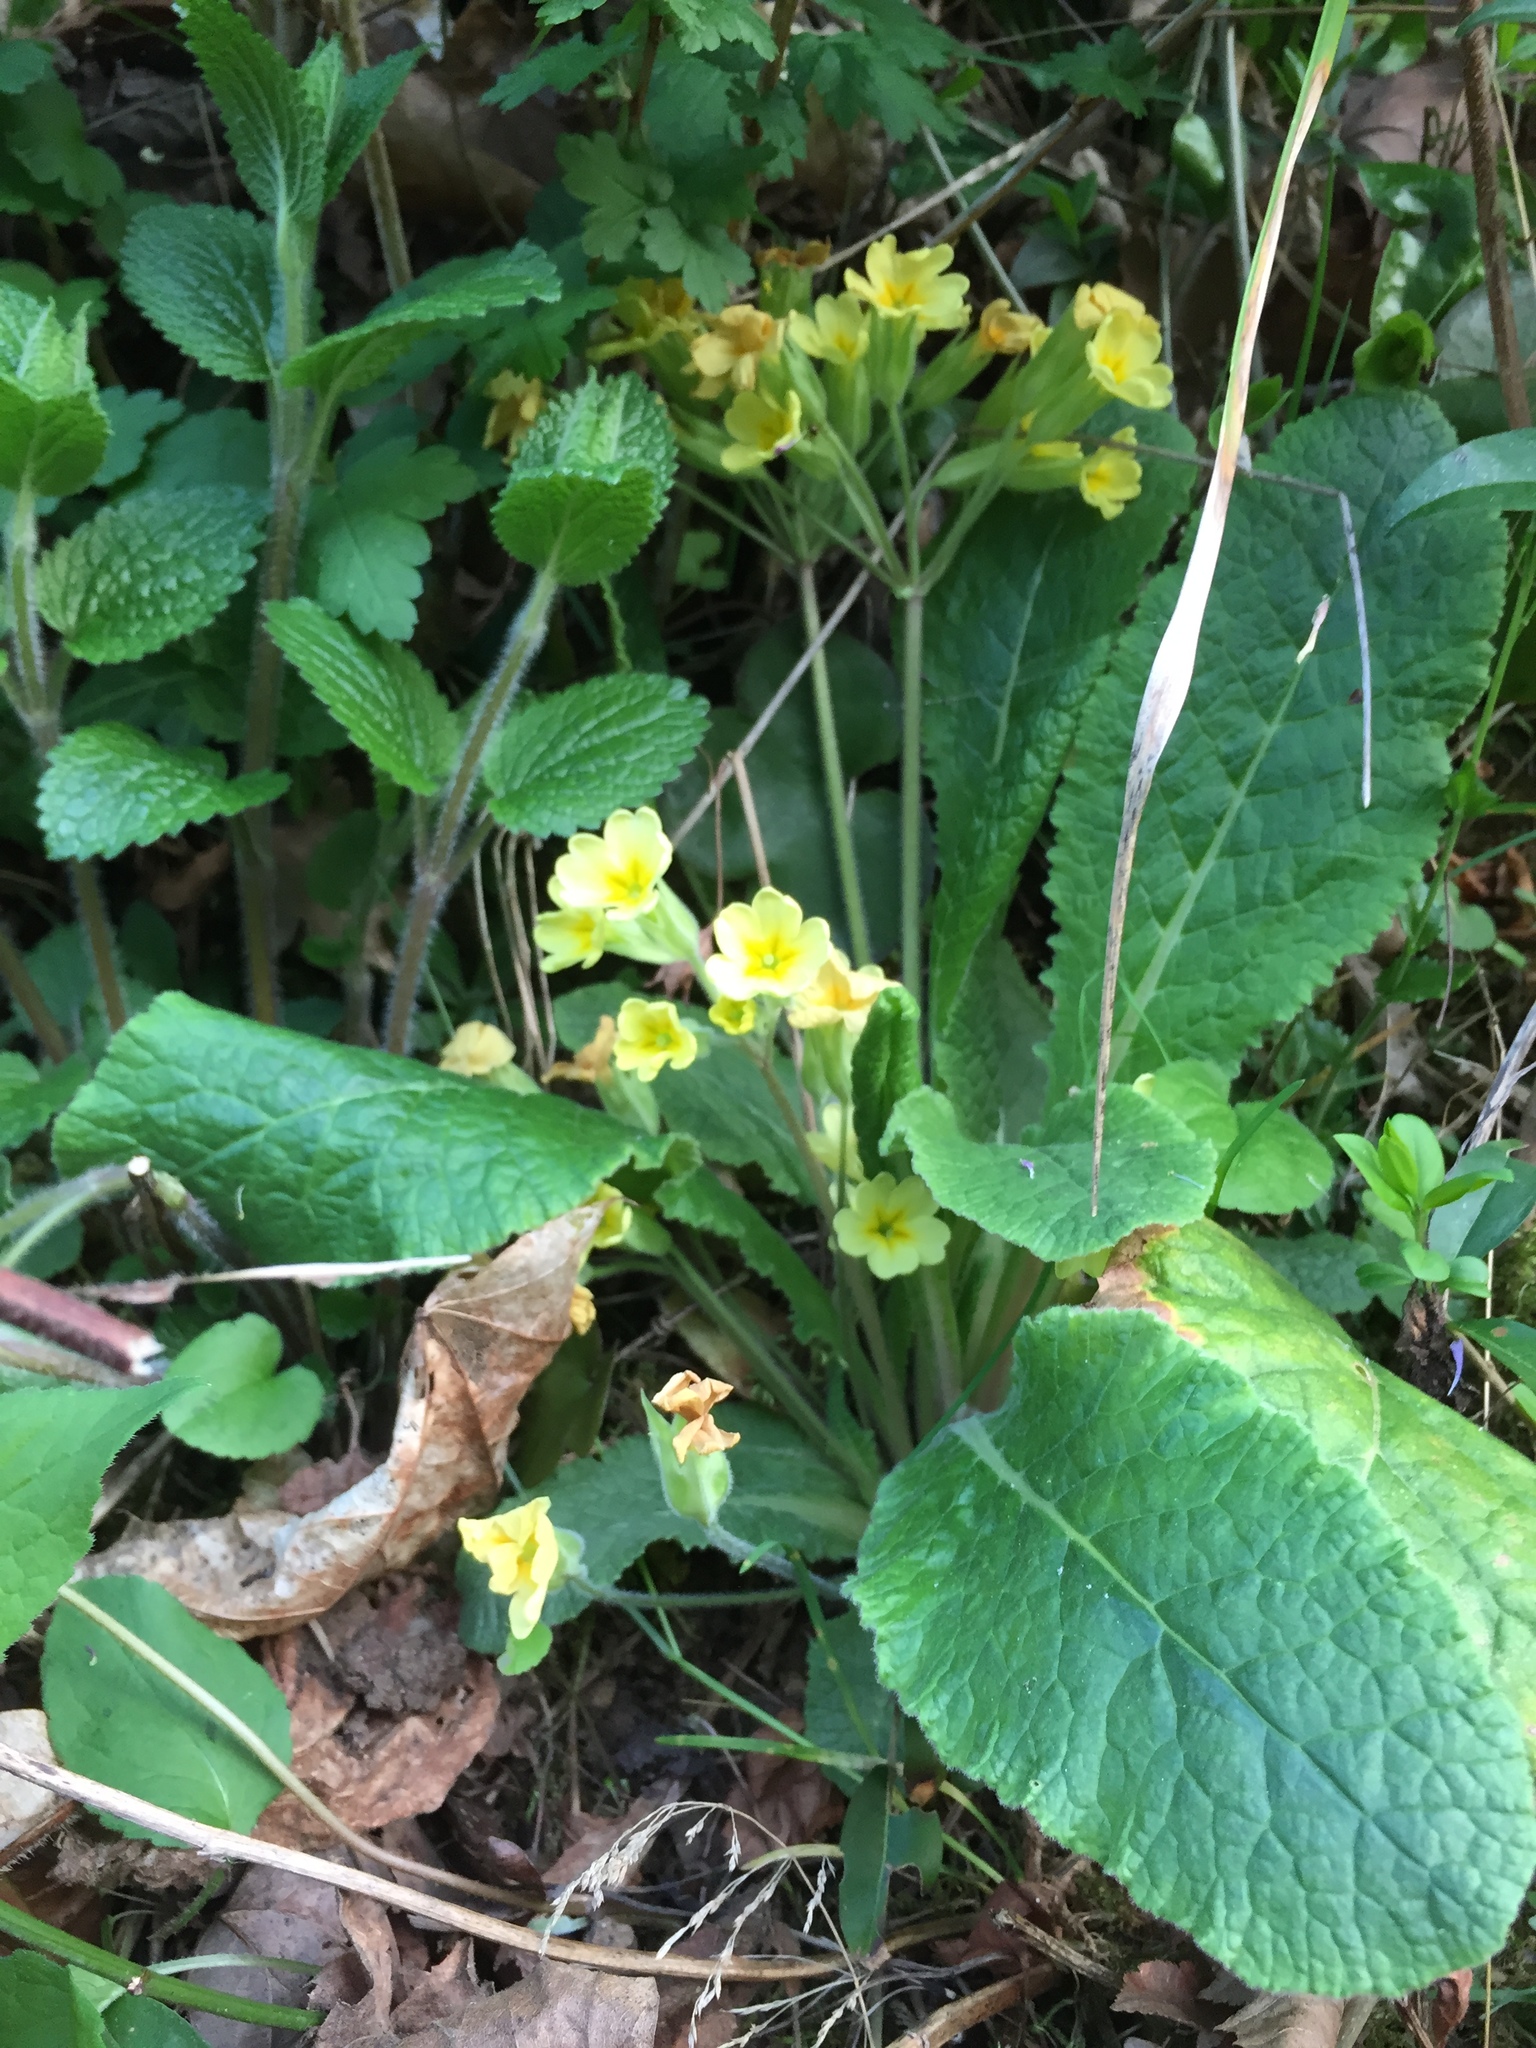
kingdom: Plantae
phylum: Tracheophyta
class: Magnoliopsida
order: Ericales
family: Primulaceae
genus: Primula
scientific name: Primula polyantha
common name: False oxlip
